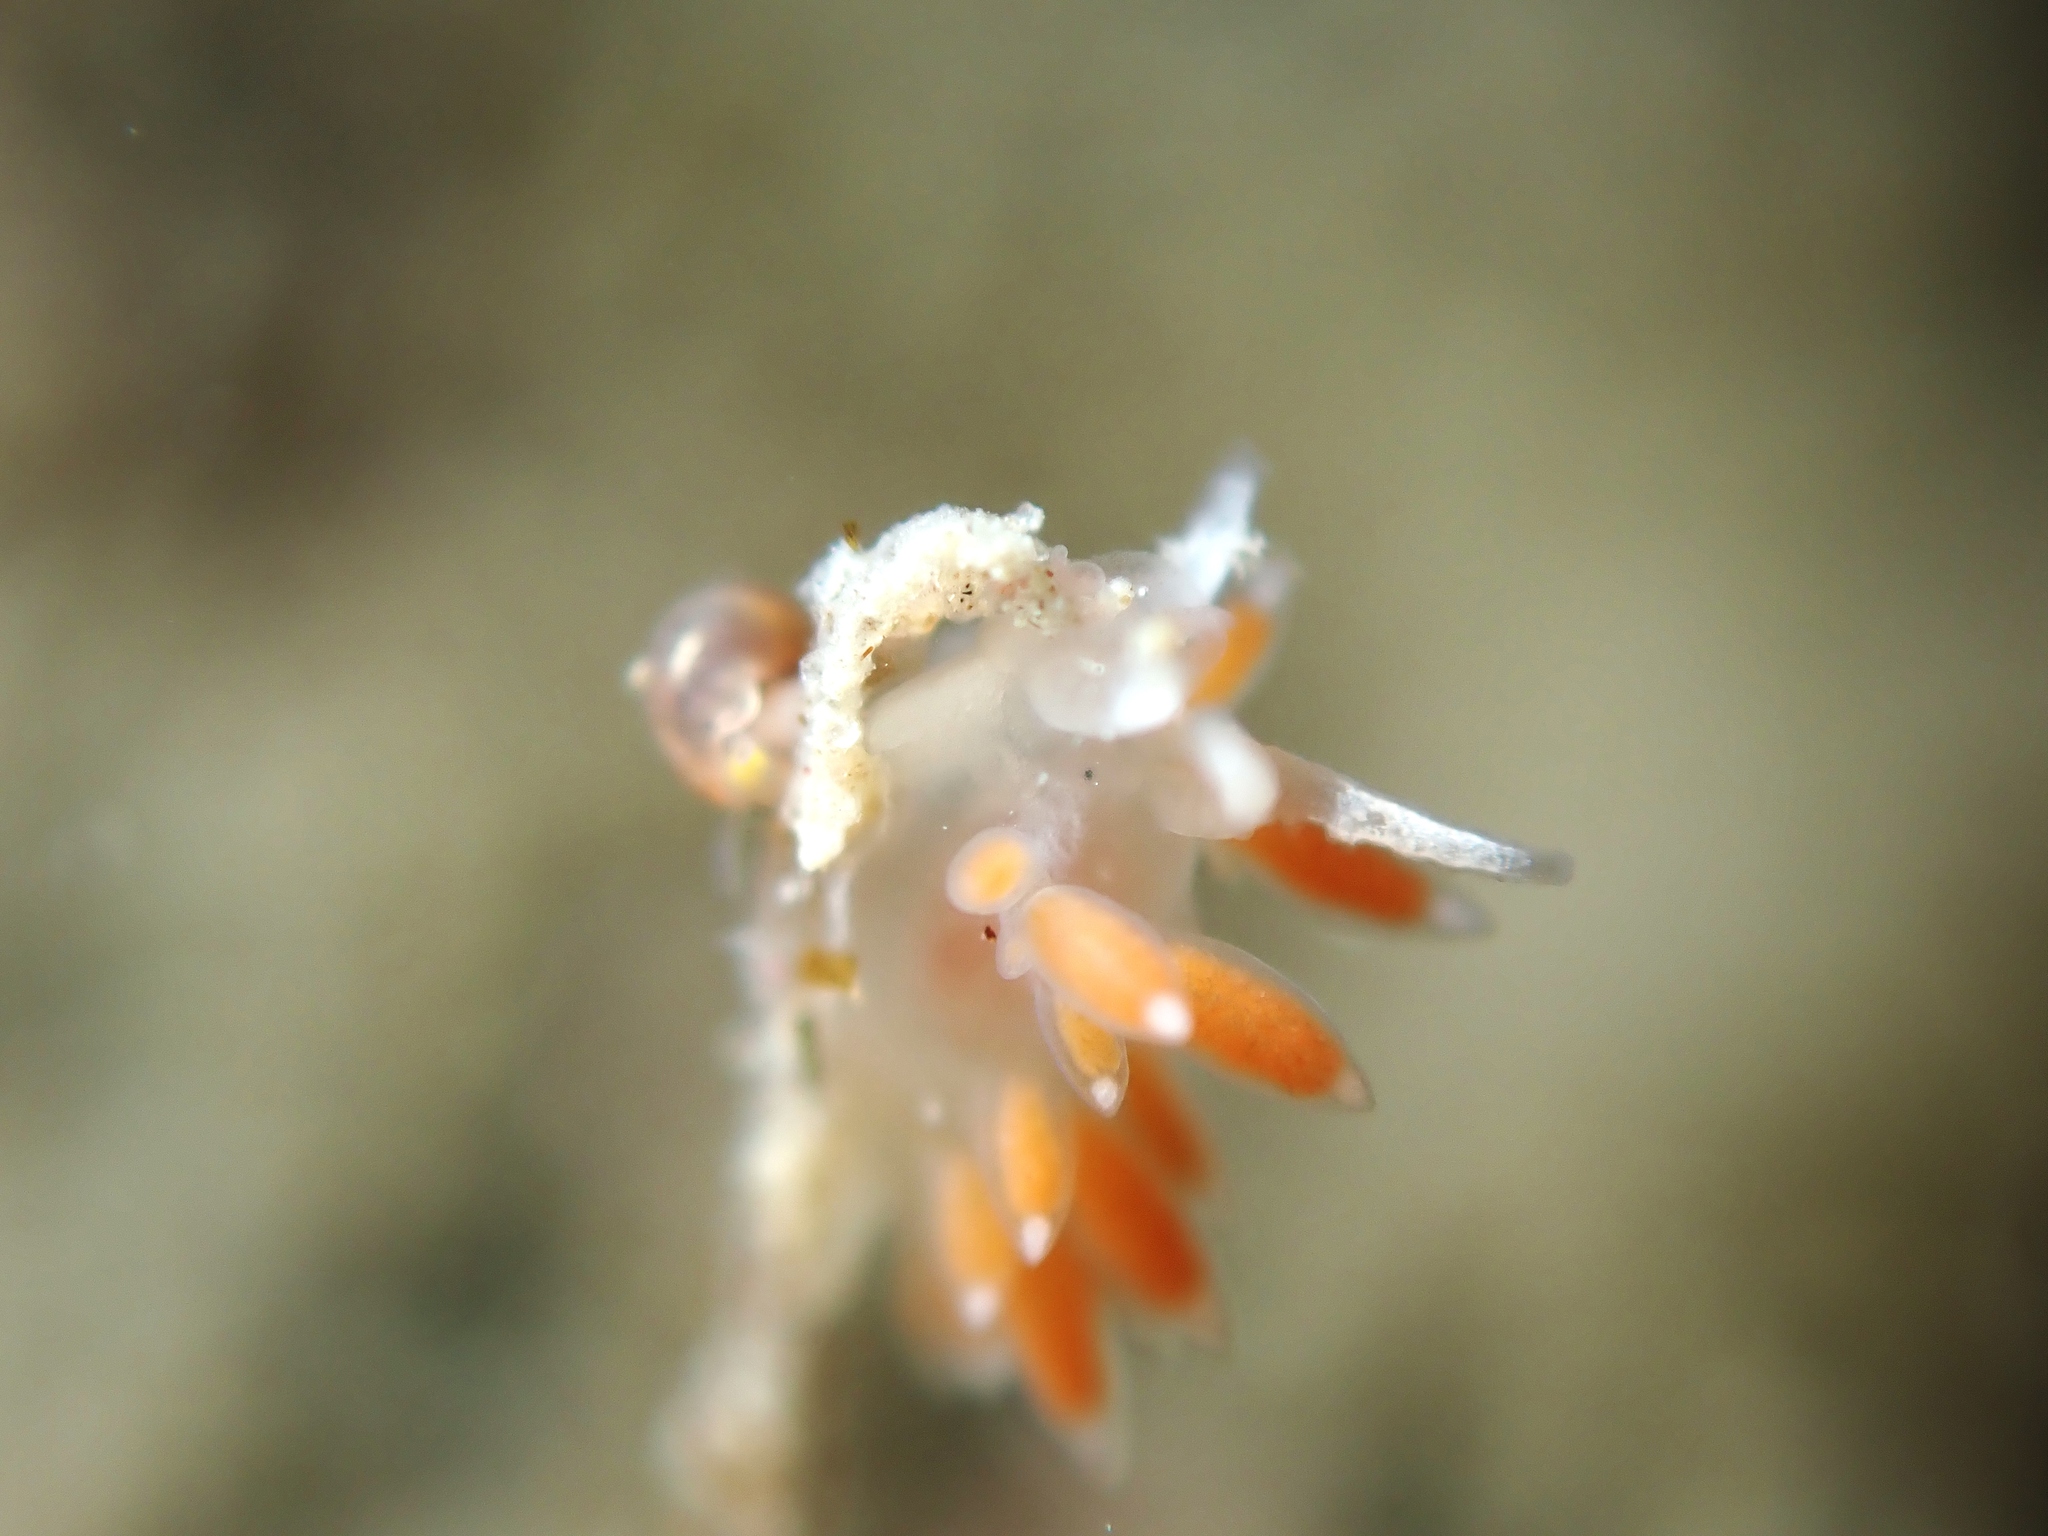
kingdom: Animalia
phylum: Mollusca
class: Gastropoda
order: Nudibranchia
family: Flabellinidae
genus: Coryphellina
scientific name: Coryphellina albomarginata
